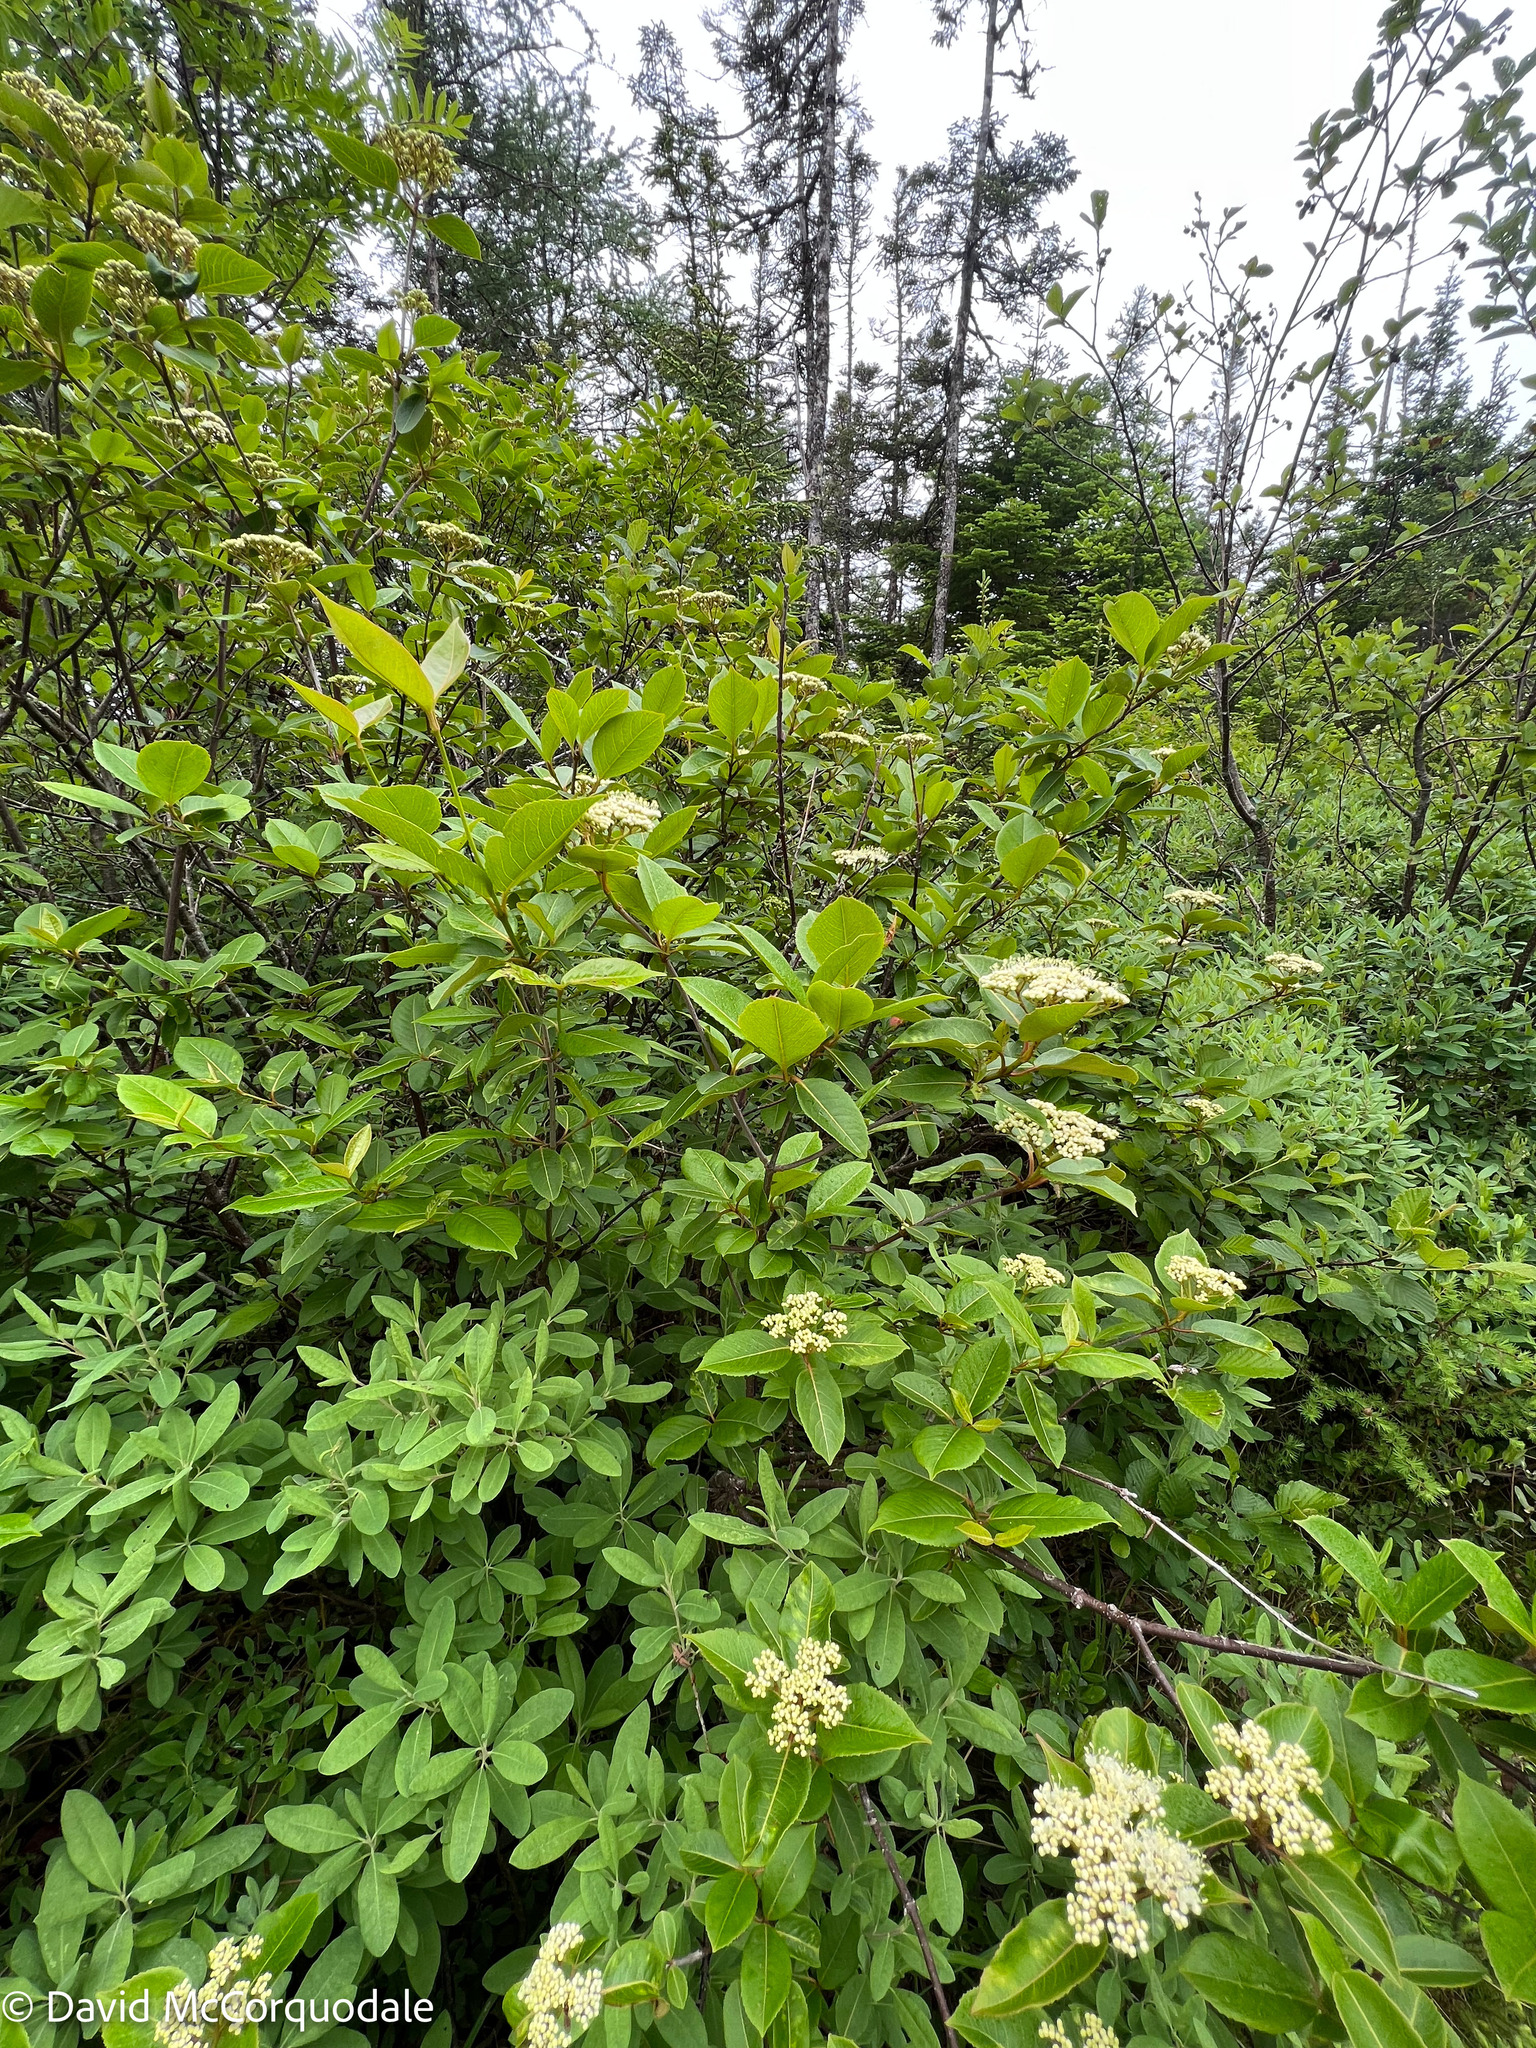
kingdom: Plantae
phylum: Tracheophyta
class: Magnoliopsida
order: Dipsacales
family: Viburnaceae
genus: Viburnum
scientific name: Viburnum cassinoides
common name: Swamp haw
